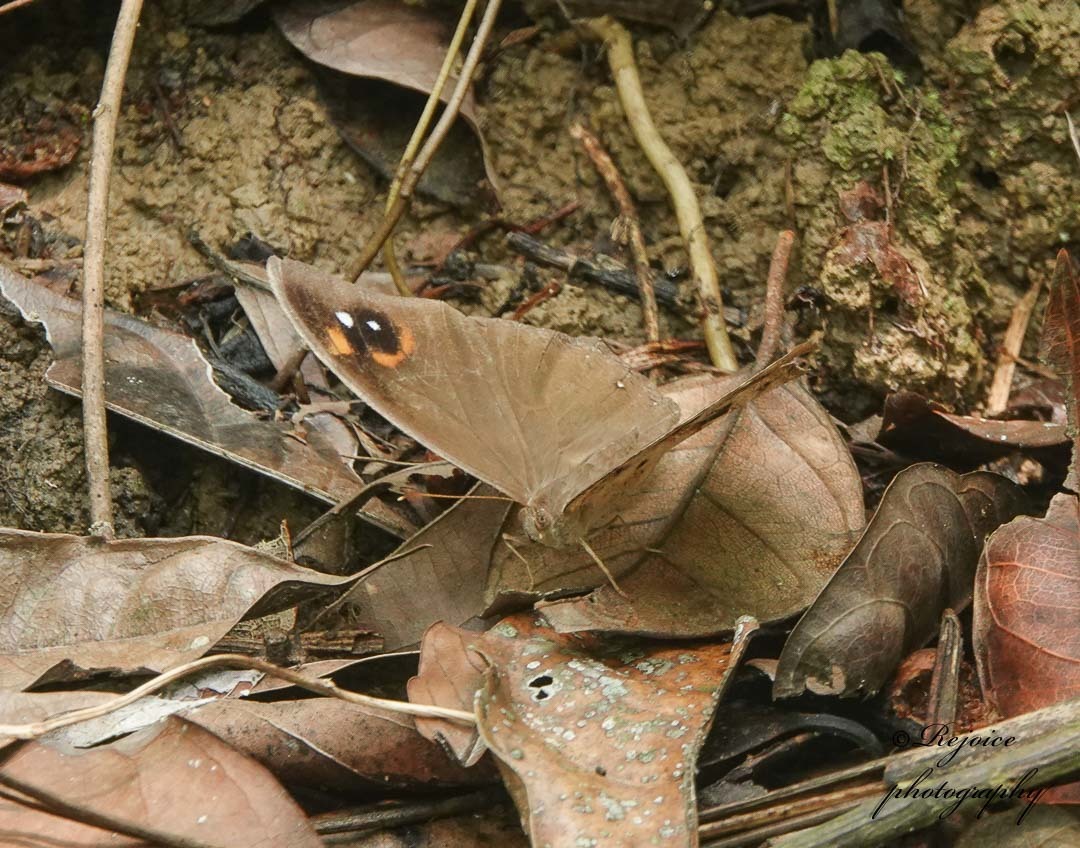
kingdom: Animalia
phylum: Arthropoda
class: Insecta
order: Lepidoptera
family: Nymphalidae
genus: Melanitis
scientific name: Melanitis leda
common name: Twilight brown
